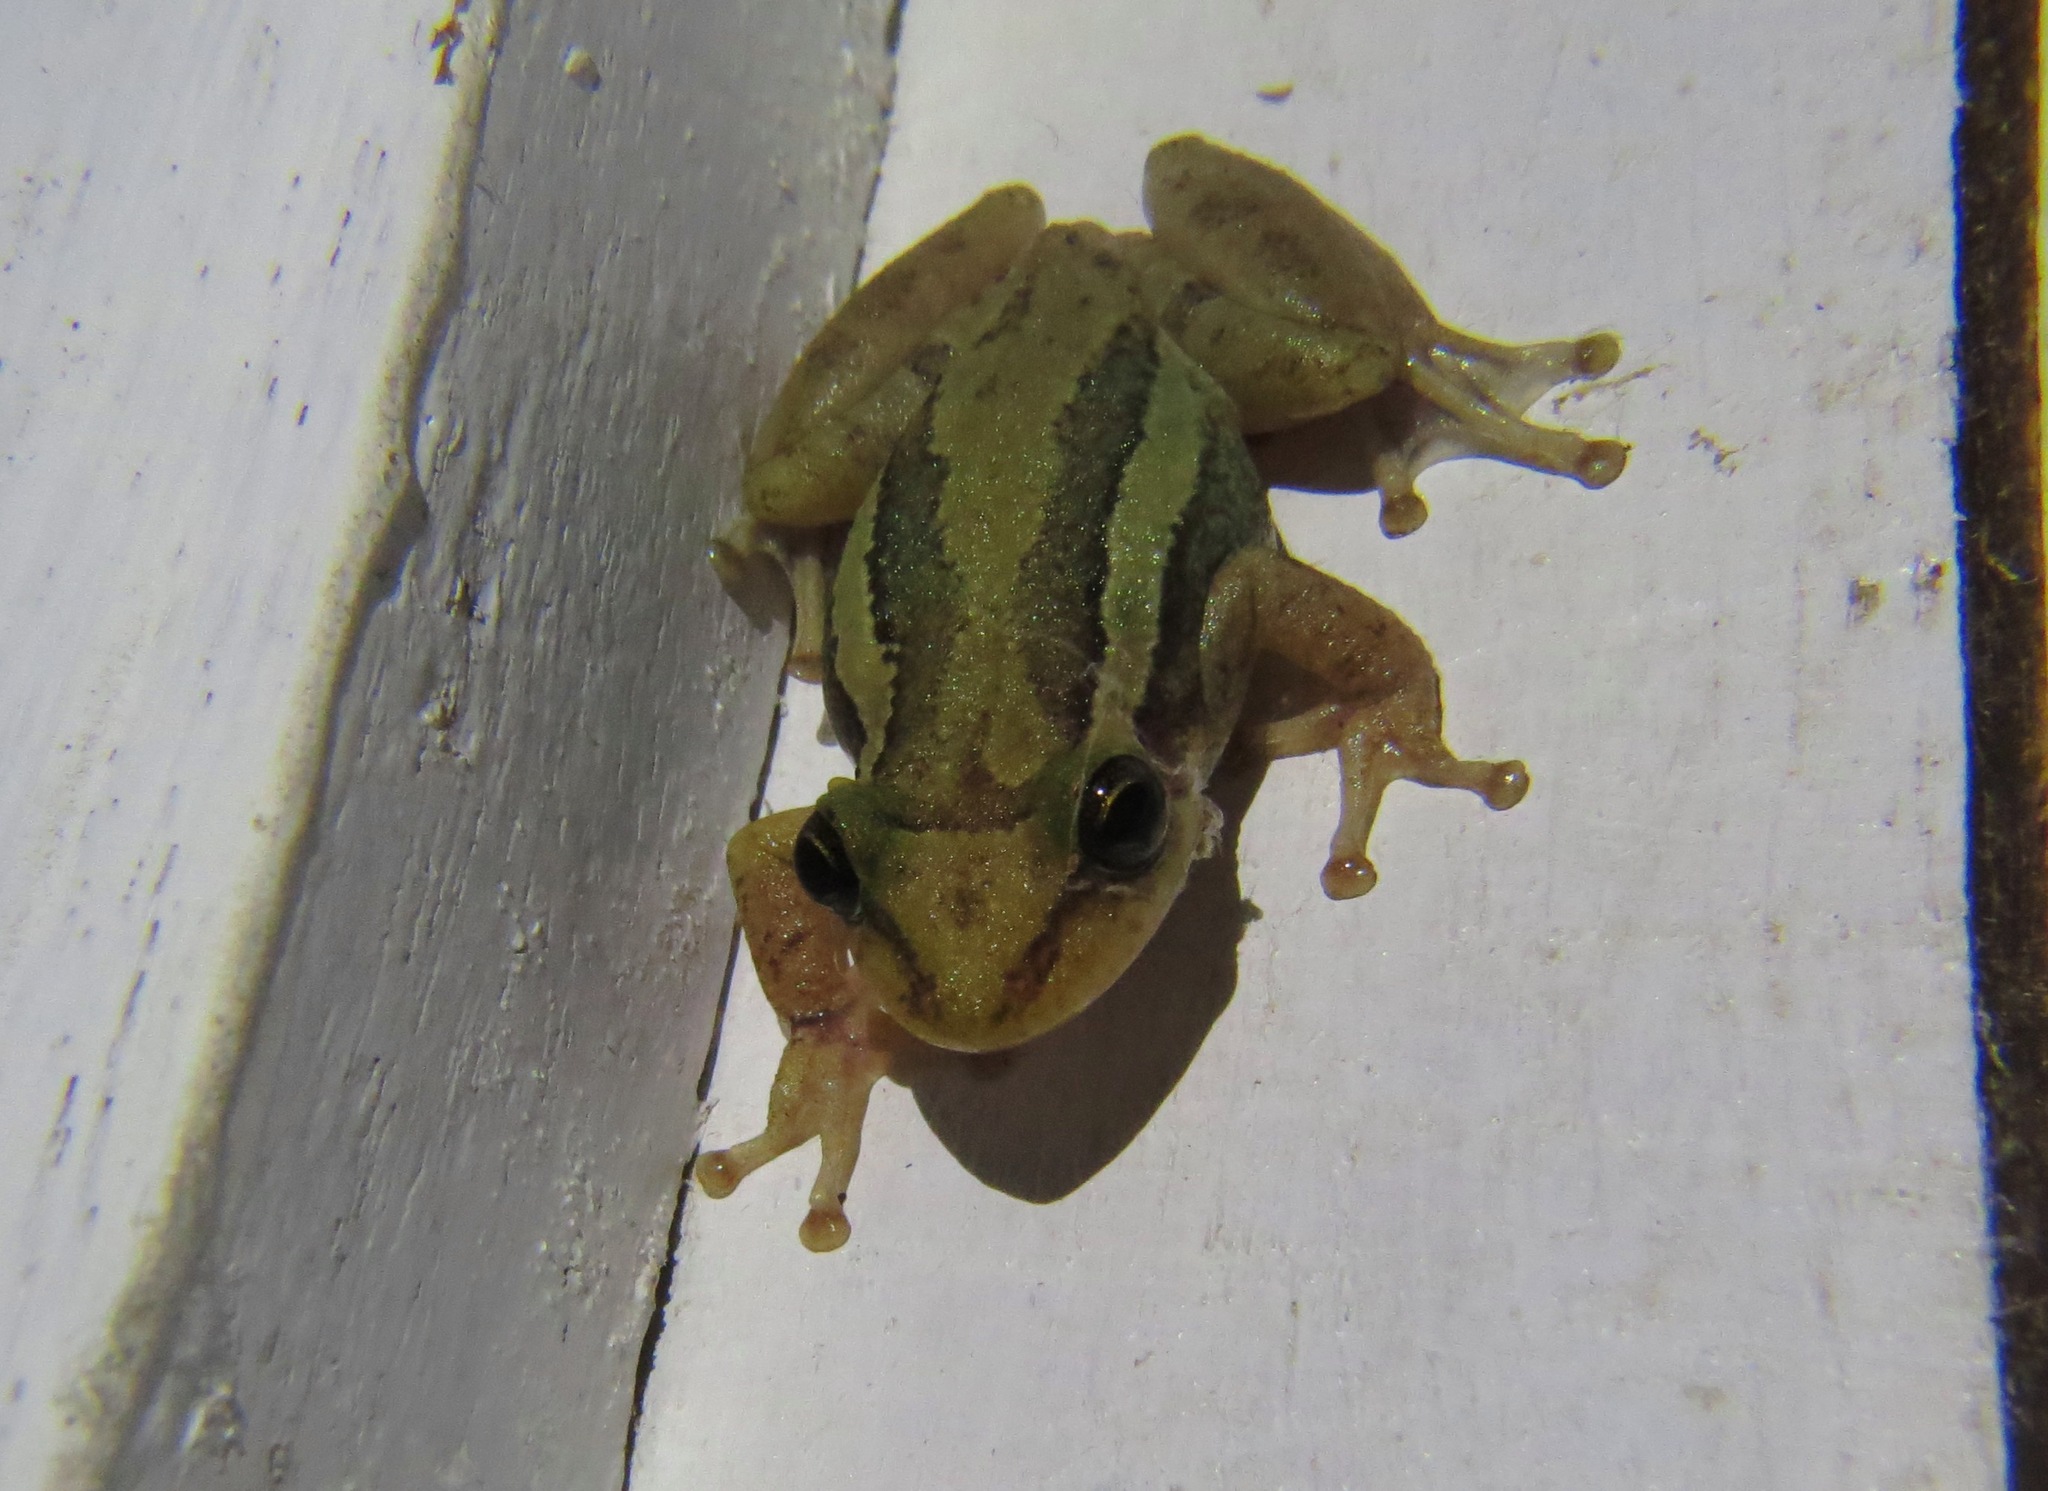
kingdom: Animalia
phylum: Chordata
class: Amphibia
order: Anura
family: Hylidae
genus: Scinax
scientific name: Scinax ruber
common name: Red snouted treefrog
